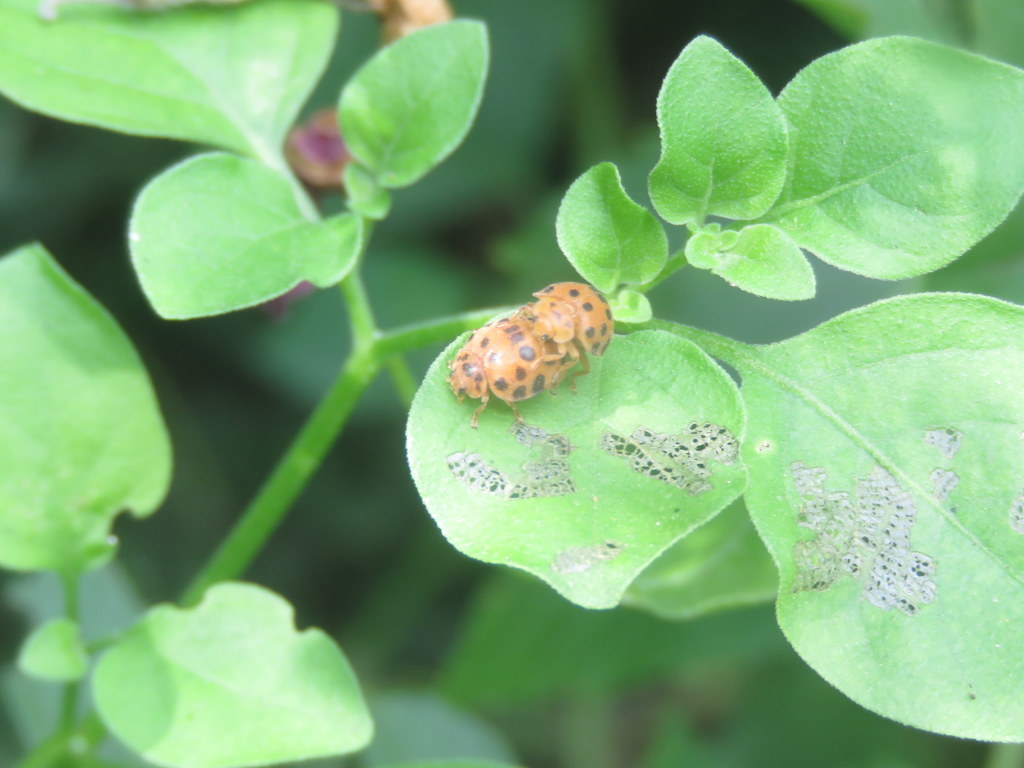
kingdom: Animalia
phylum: Arthropoda
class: Insecta
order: Coleoptera
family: Coccinellidae
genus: Henosepilachna
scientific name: Henosepilachna vigintioctopunctata
